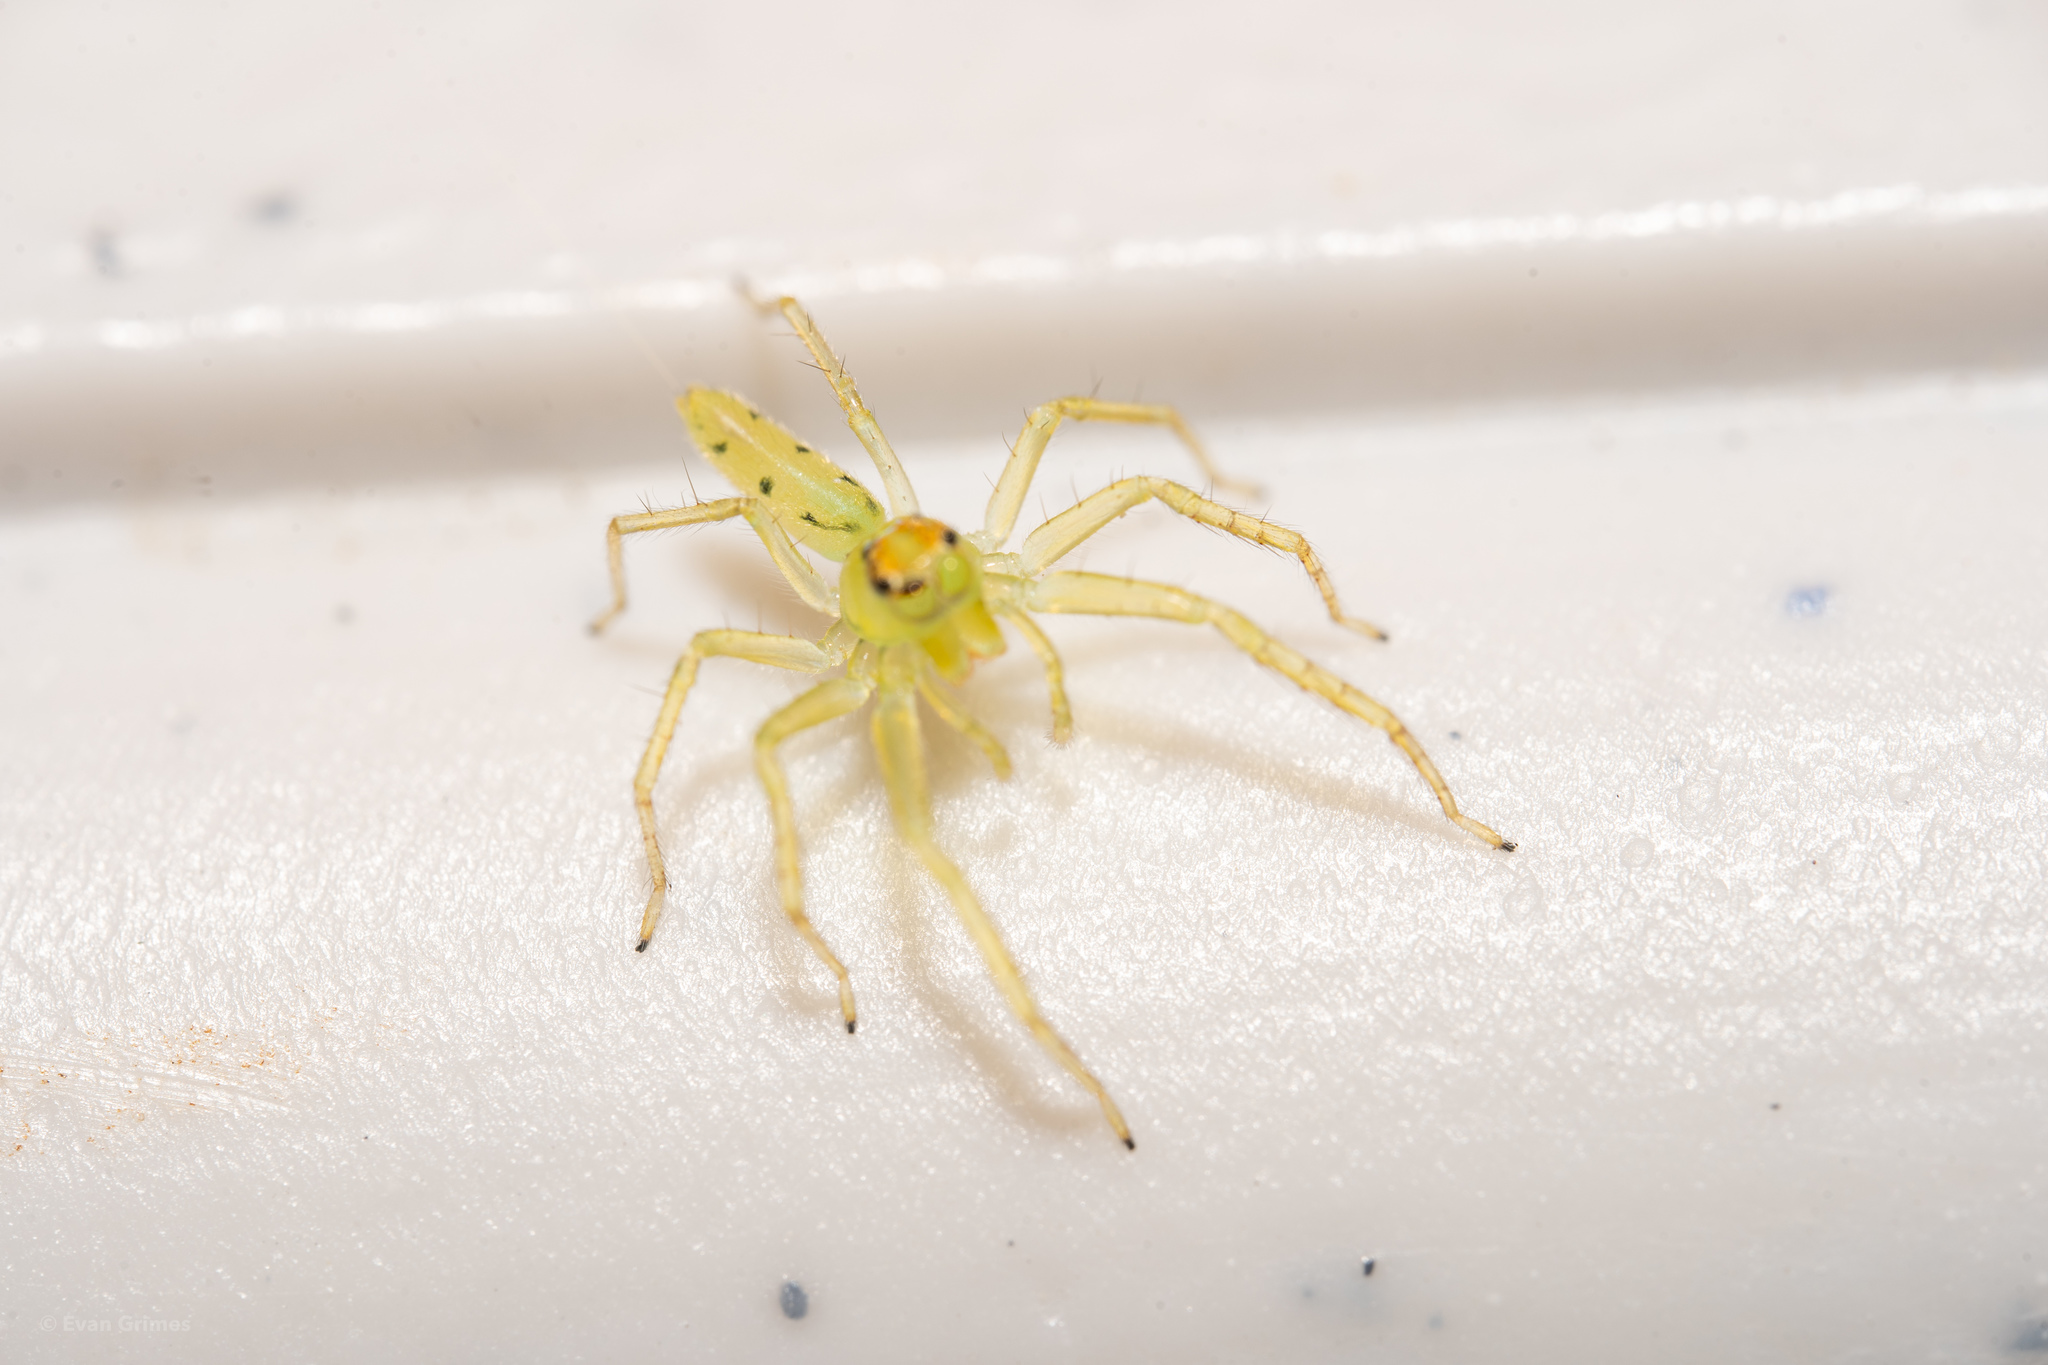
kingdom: Animalia
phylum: Arthropoda
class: Arachnida
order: Araneae
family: Salticidae
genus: Lyssomanes
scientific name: Lyssomanes viridis
